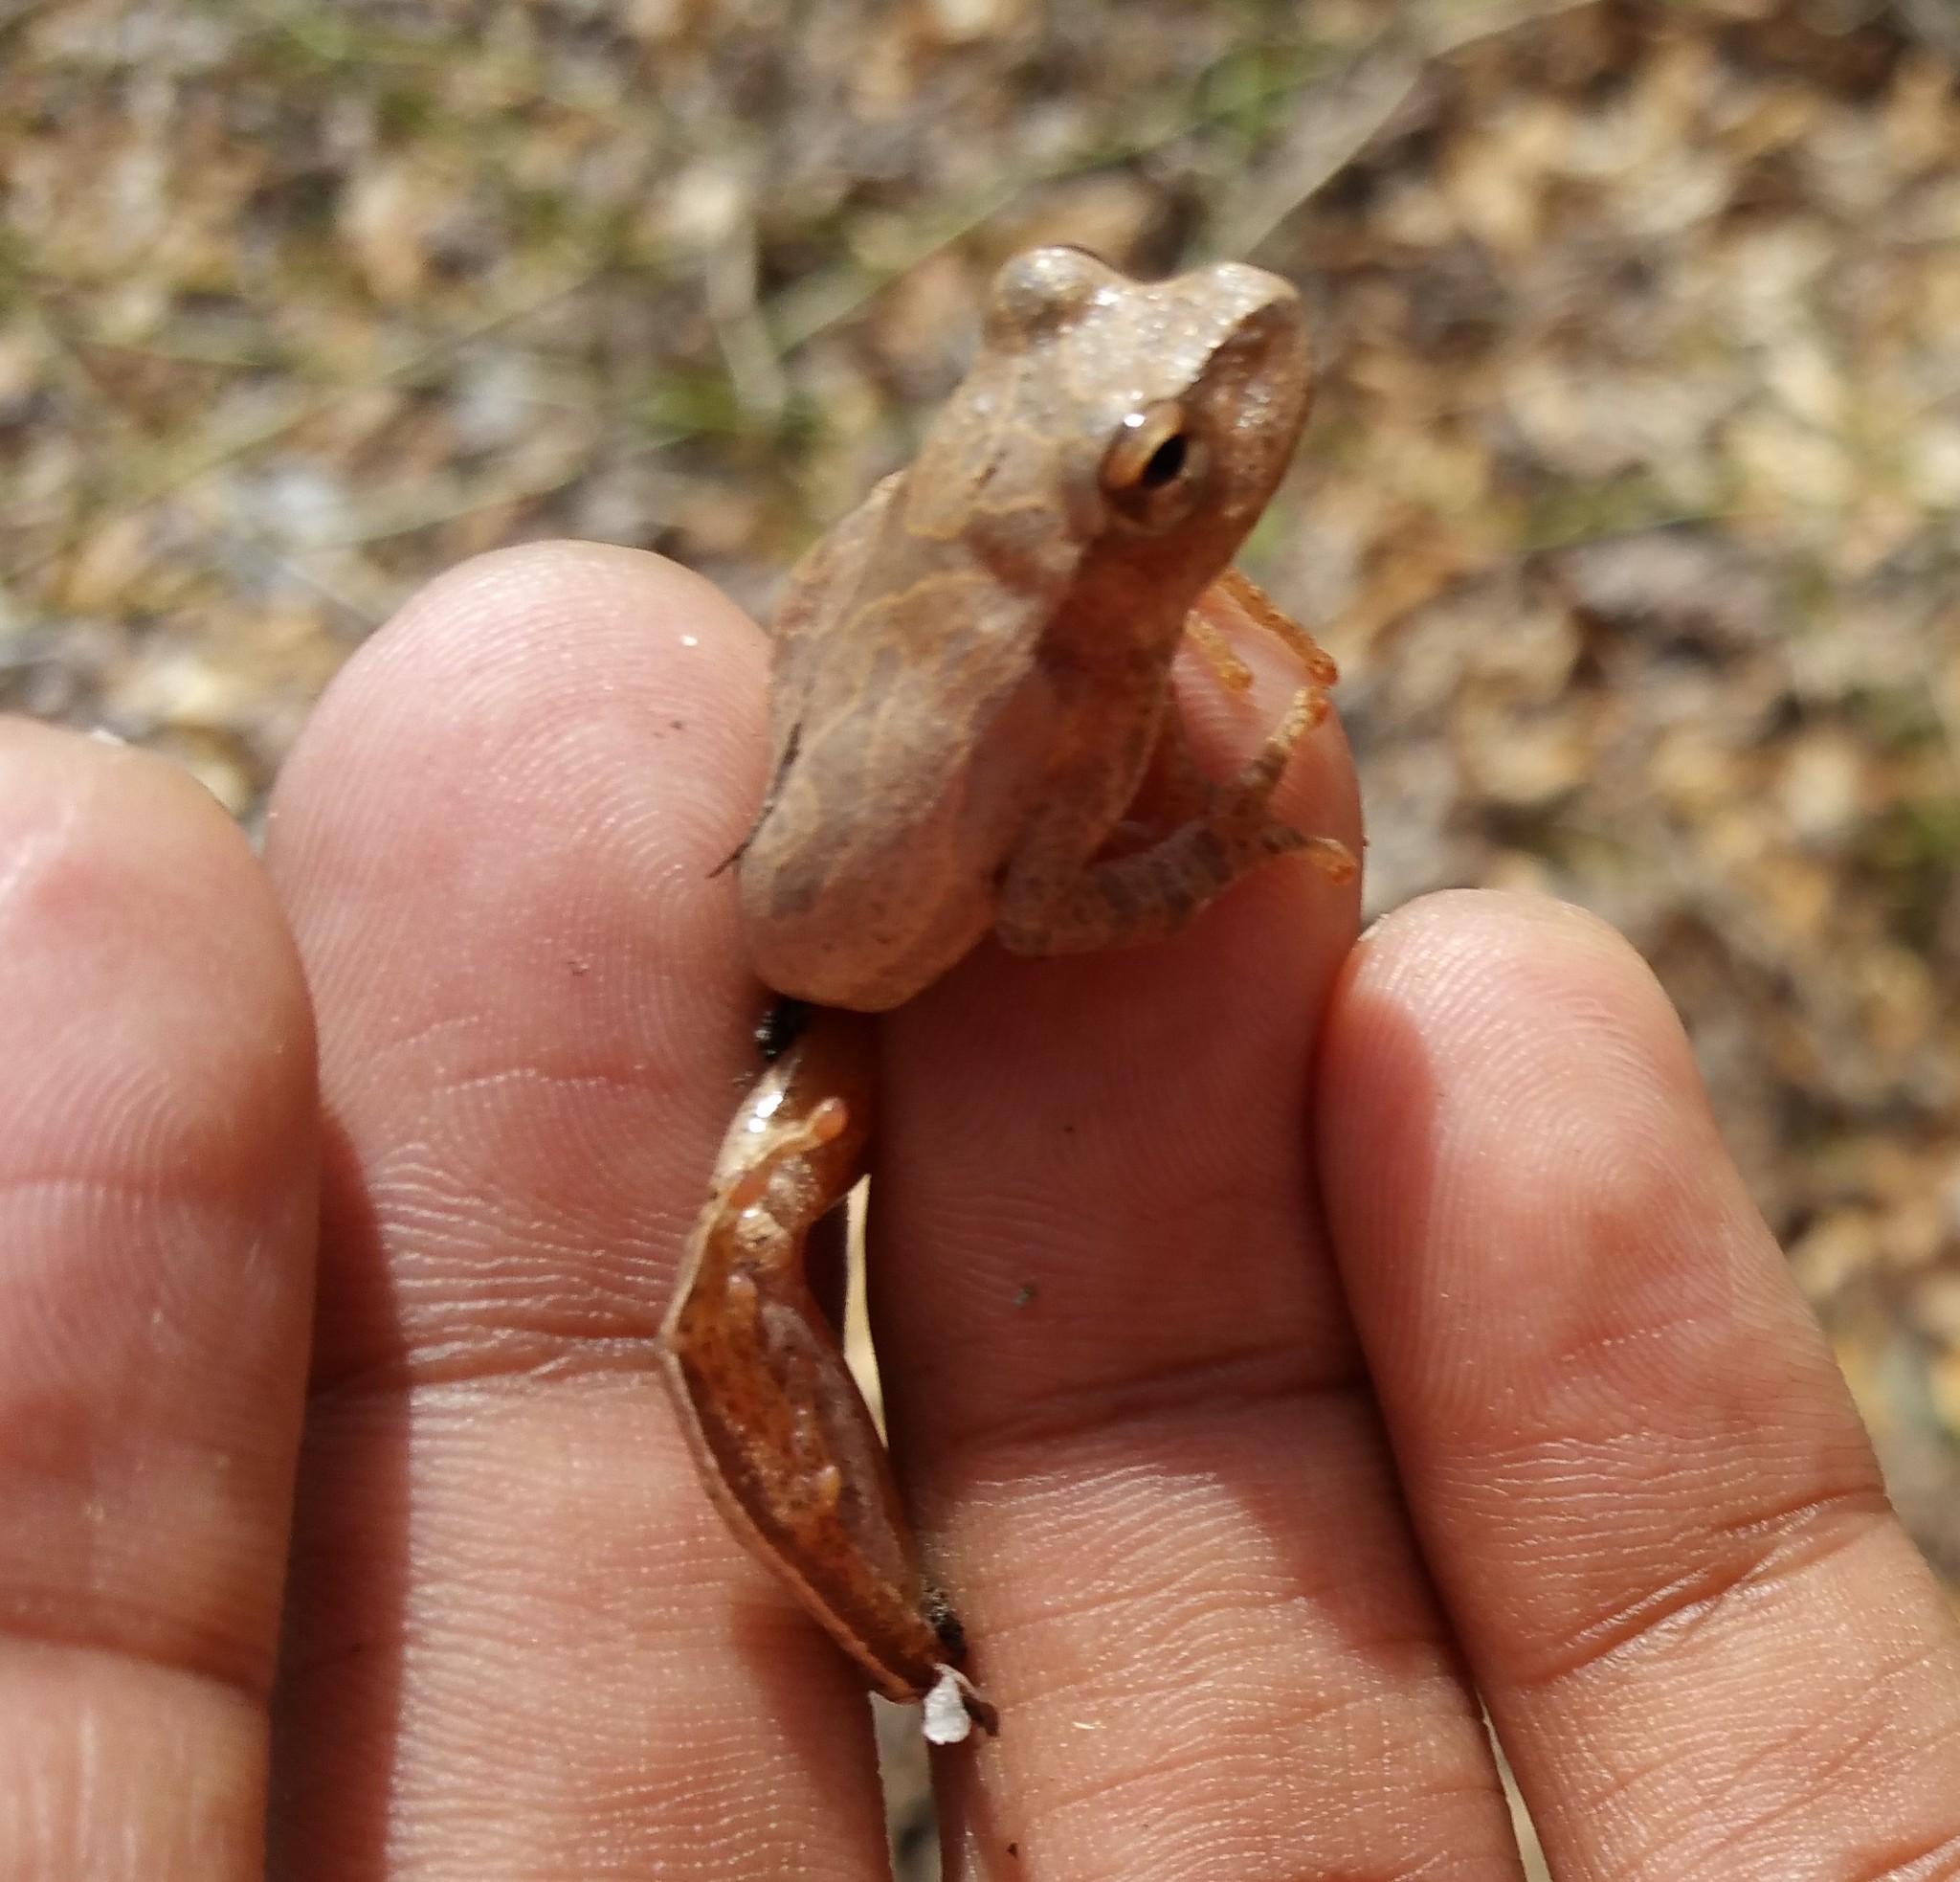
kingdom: Animalia
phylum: Chordata
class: Amphibia
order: Anura
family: Hylidae
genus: Pseudacris
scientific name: Pseudacris crucifer
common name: Spring peeper
